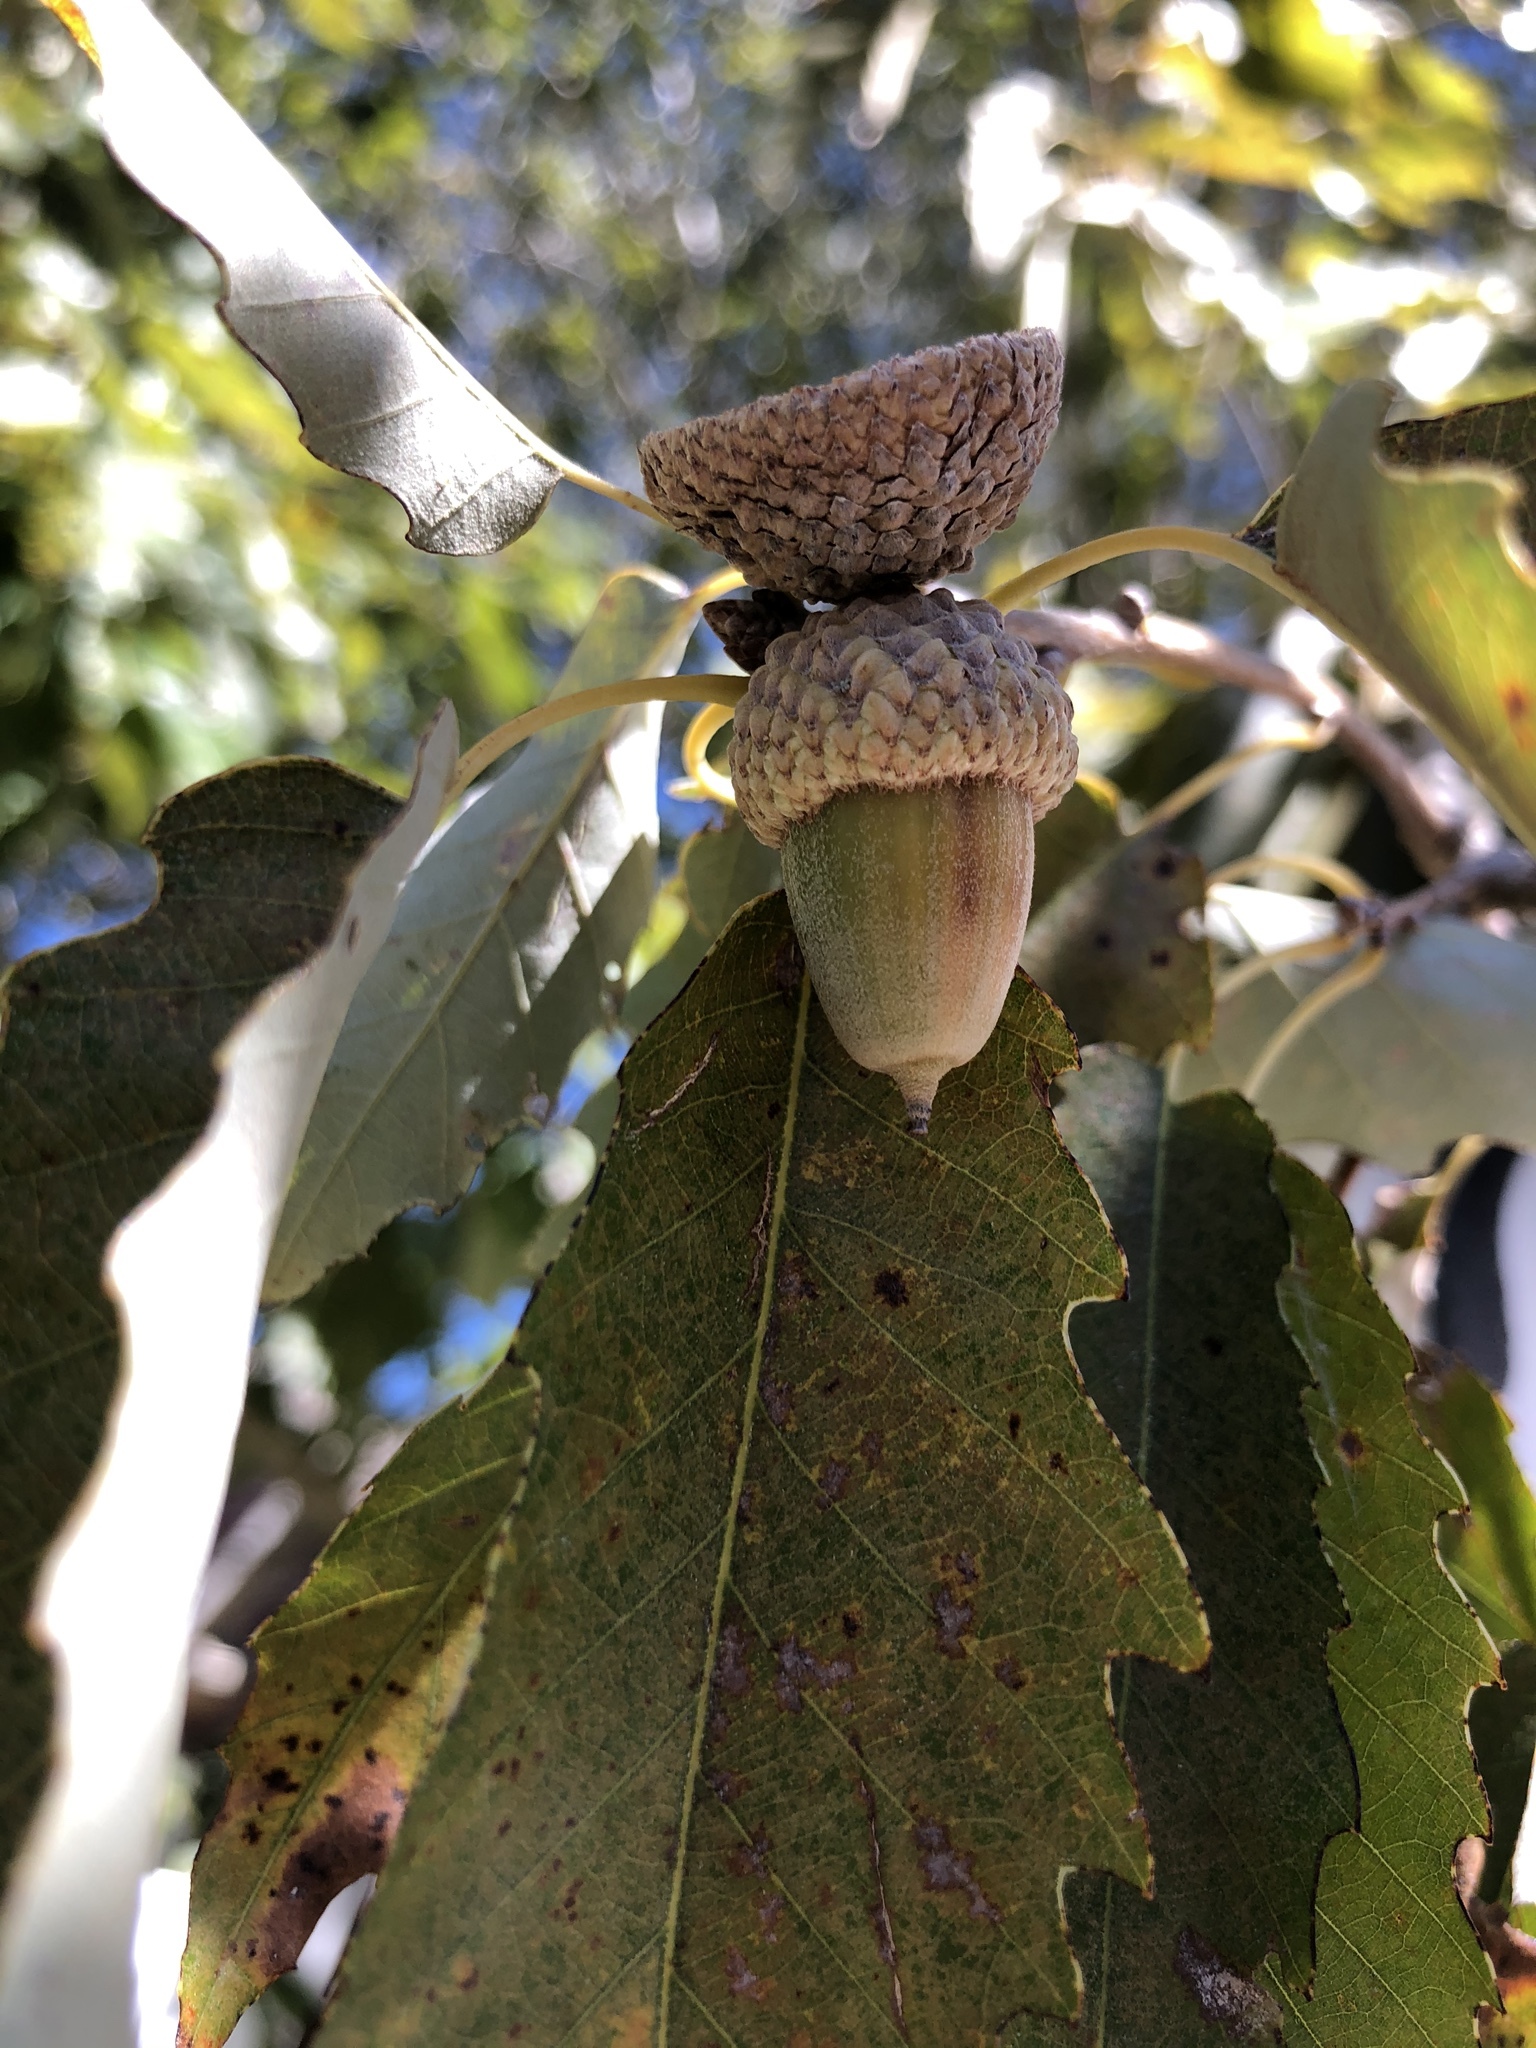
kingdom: Plantae
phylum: Tracheophyta
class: Magnoliopsida
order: Fagales
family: Fagaceae
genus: Quercus
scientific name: Quercus muehlenbergii
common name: Chinkapin oak
